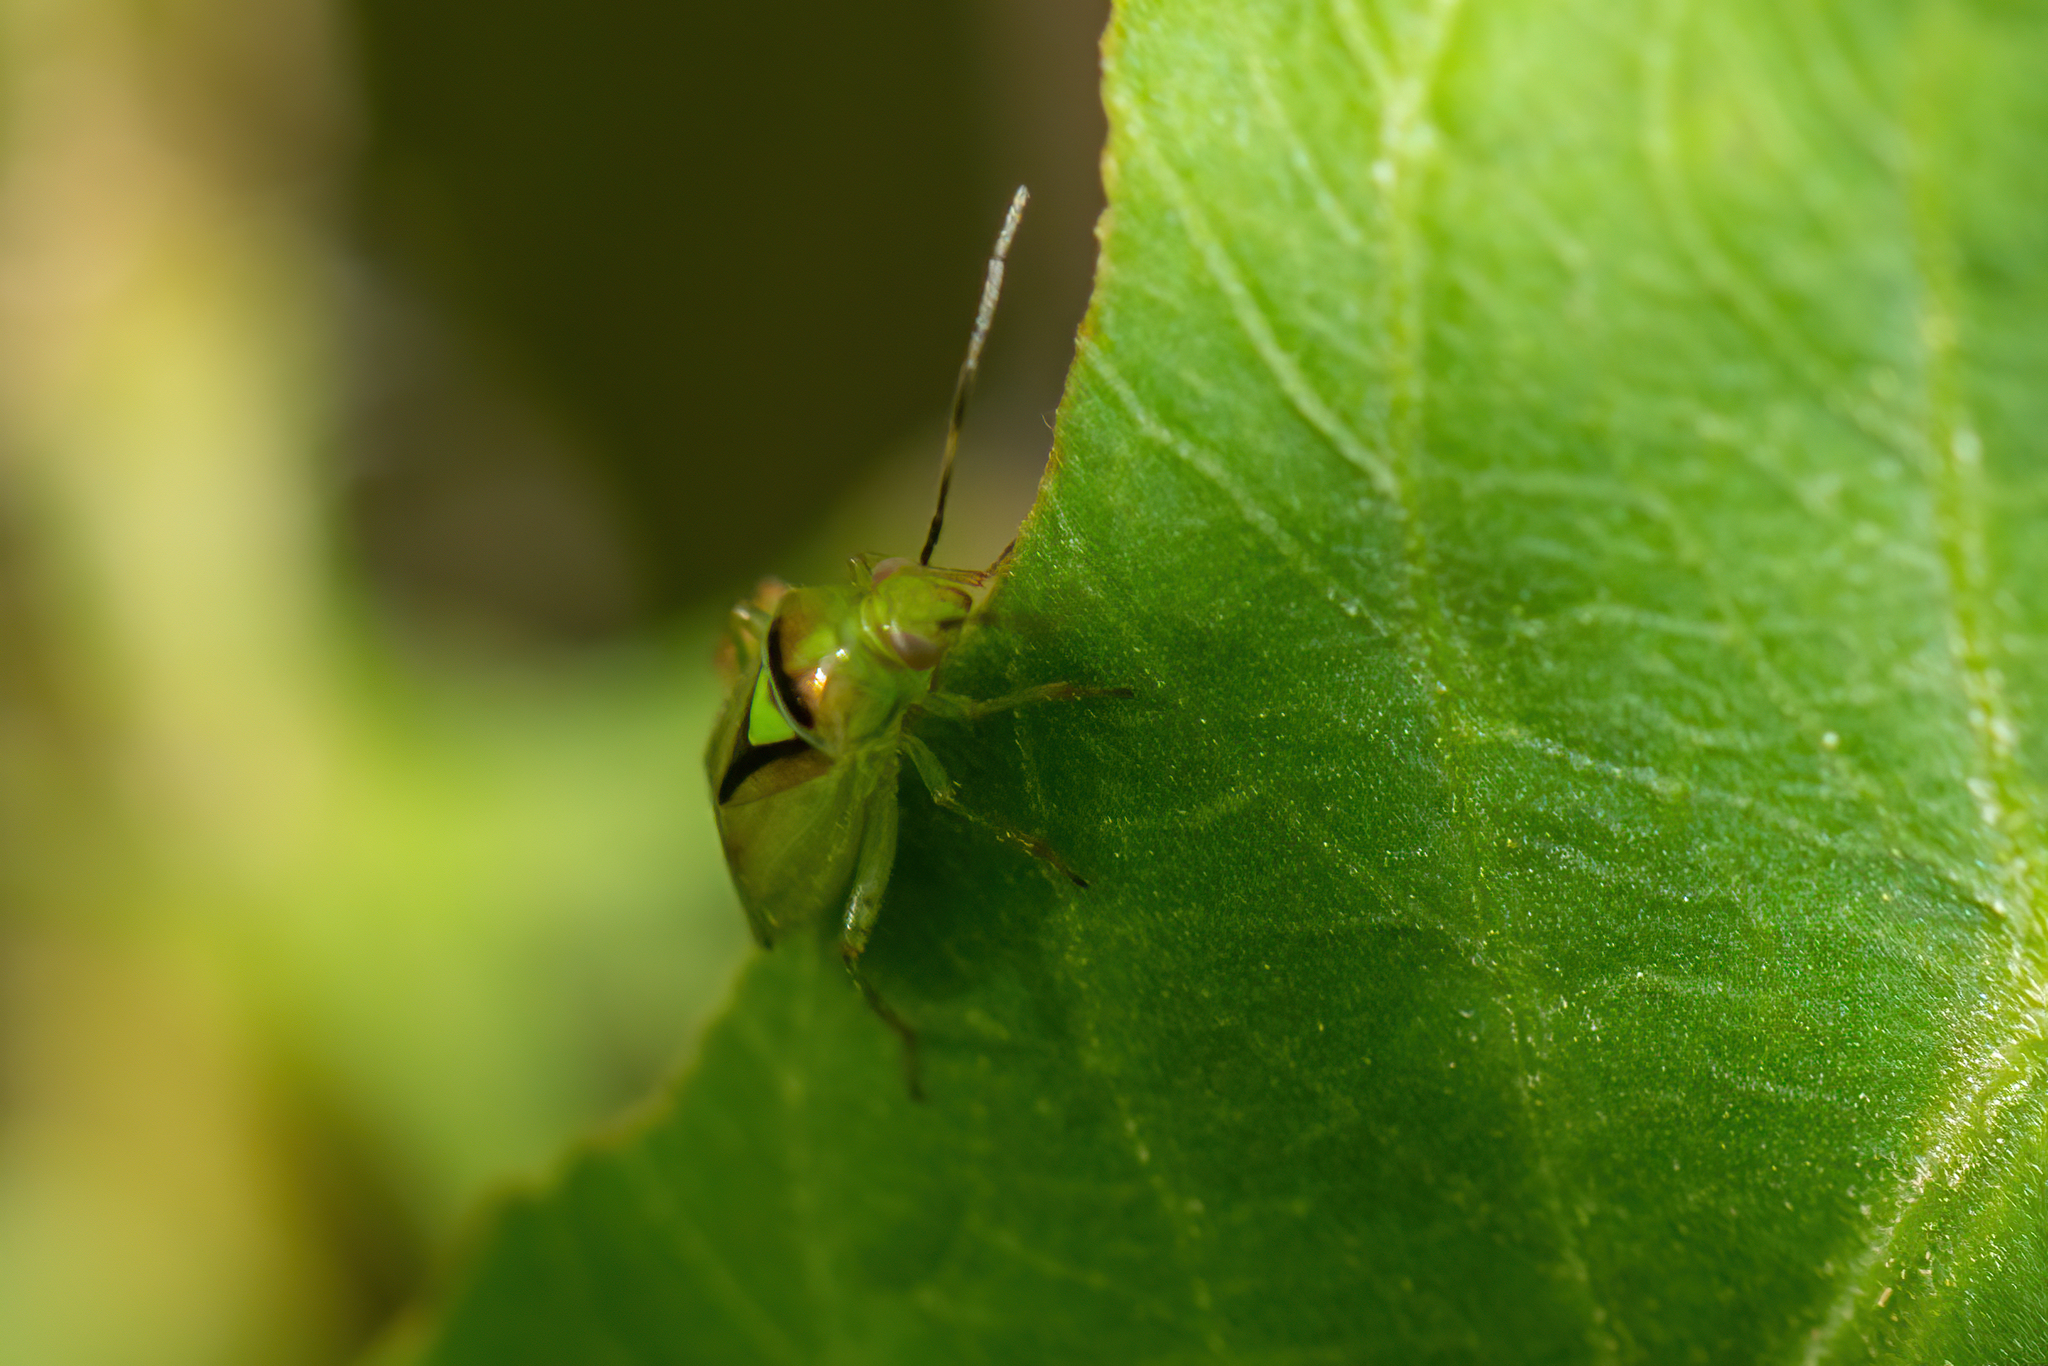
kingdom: Animalia
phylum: Arthropoda
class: Insecta
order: Hemiptera
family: Miridae
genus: Proba
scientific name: Proba distanti
